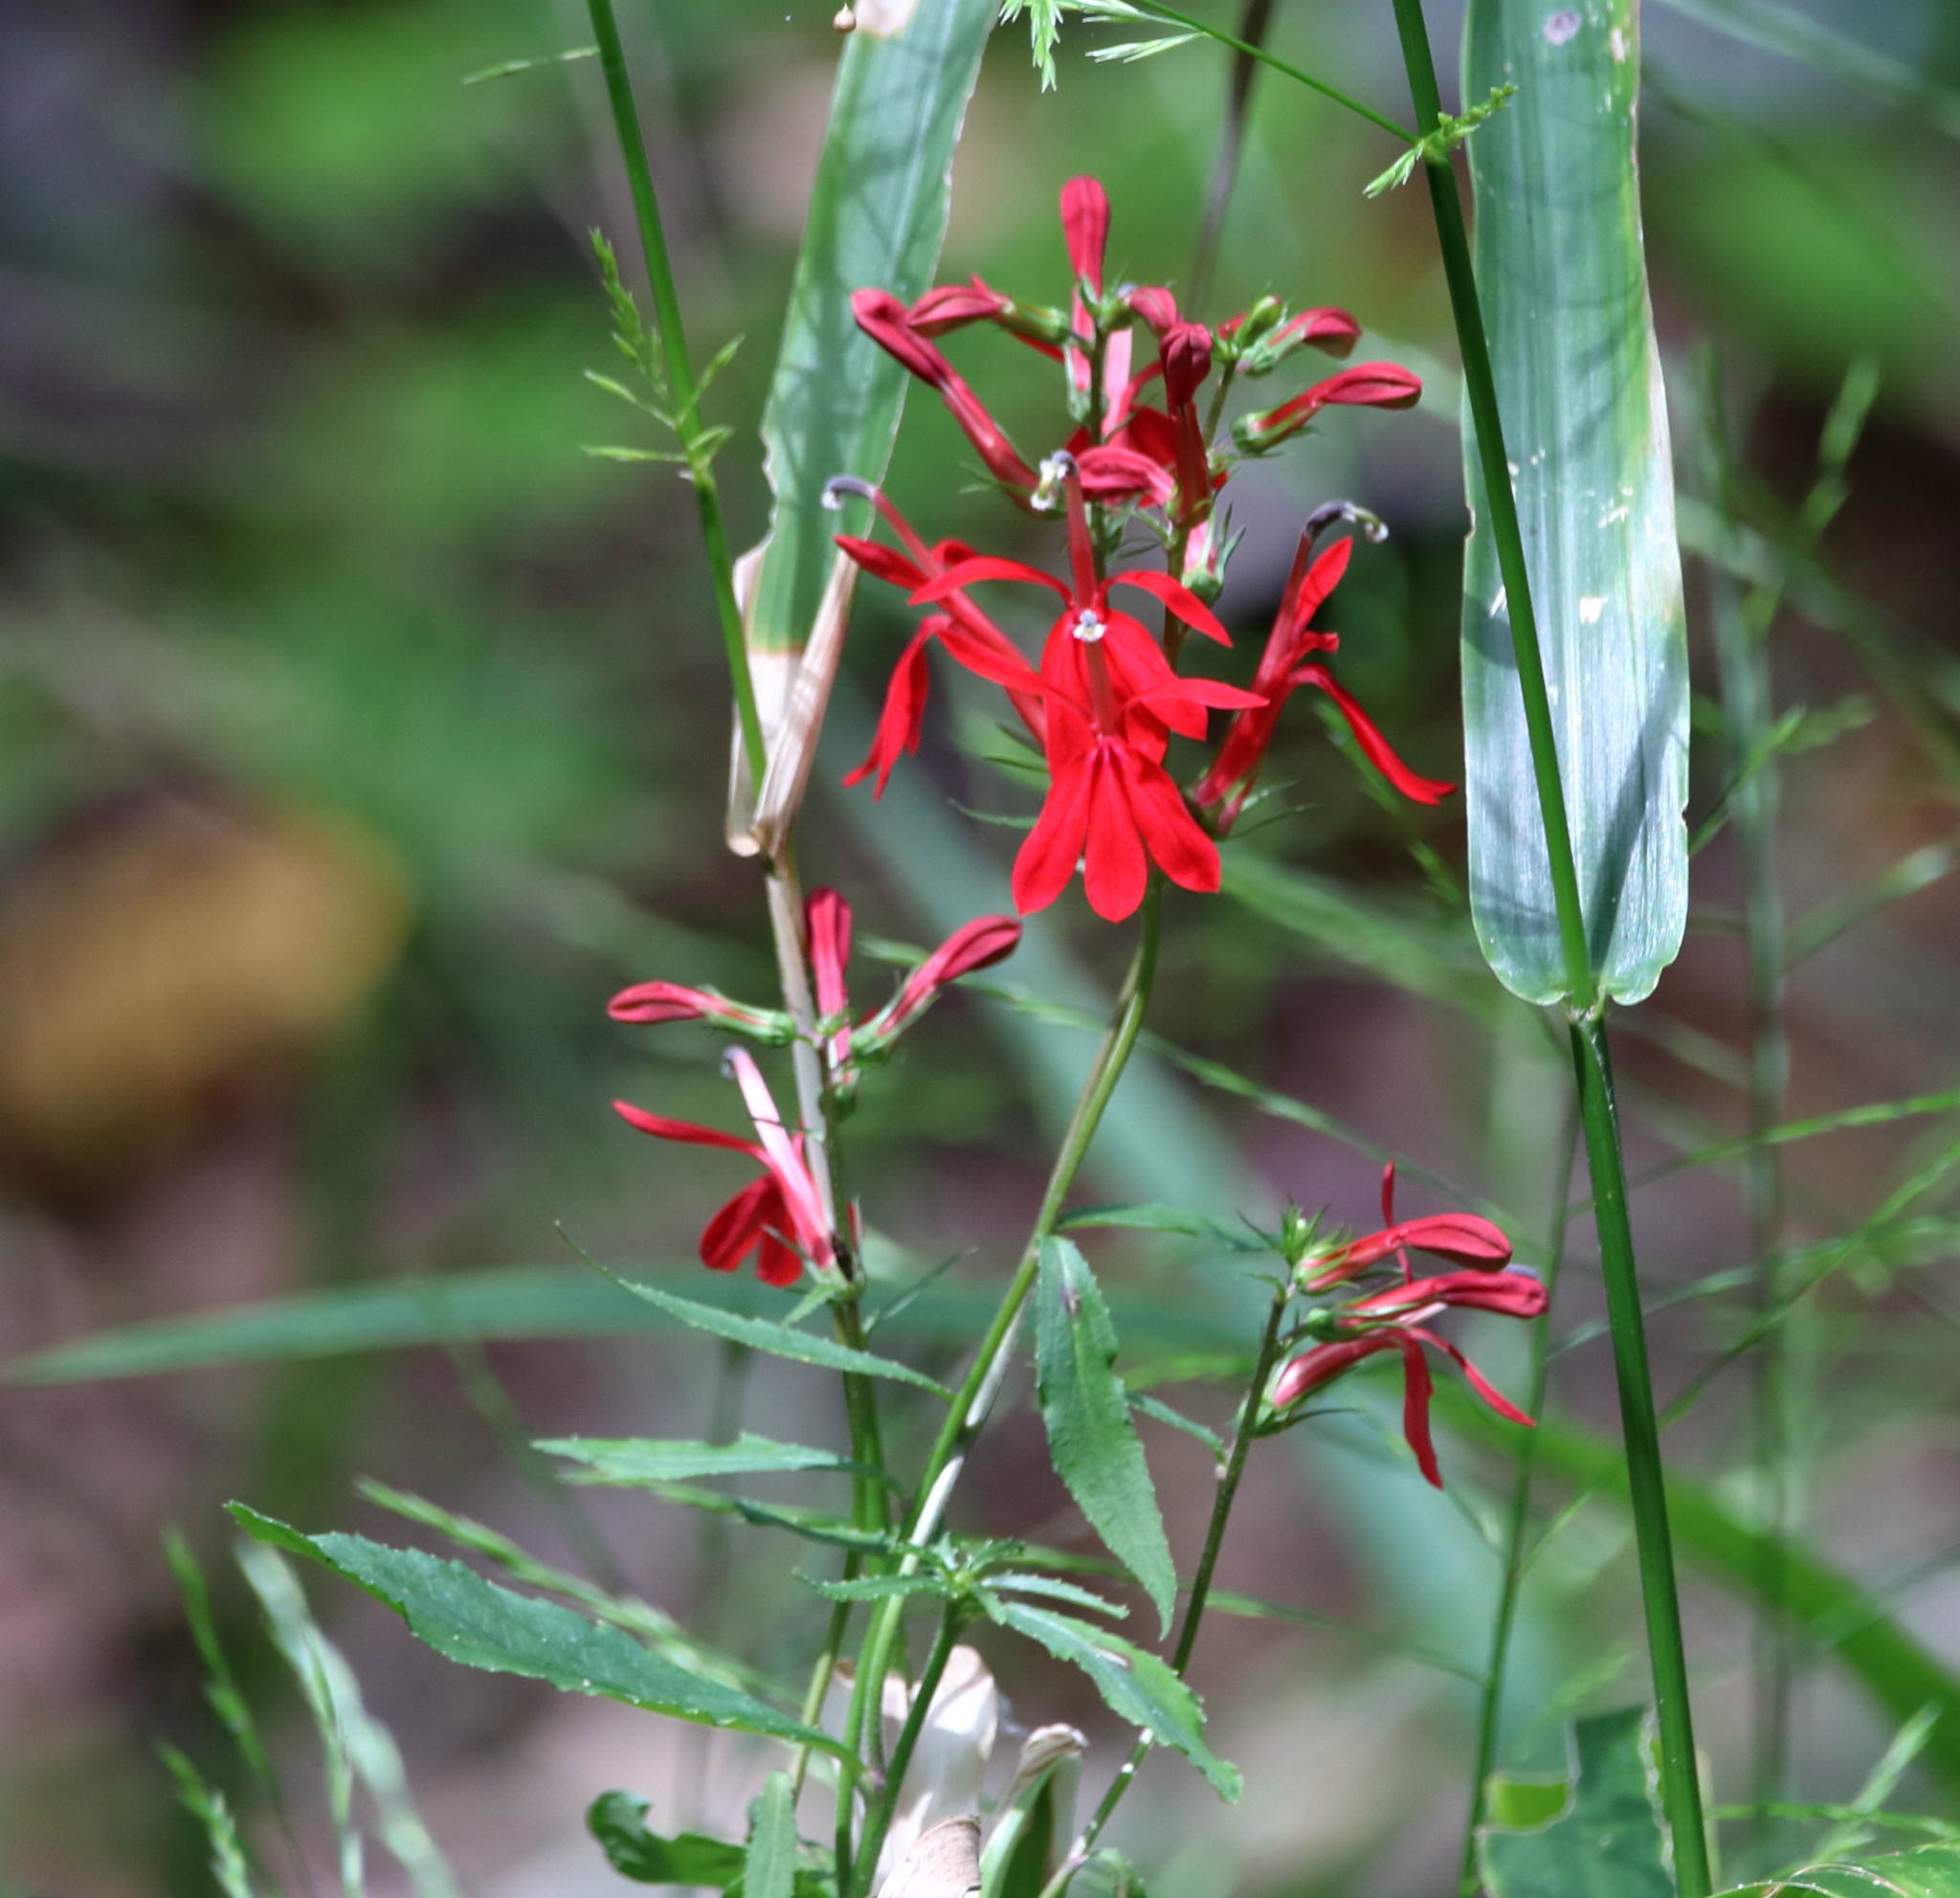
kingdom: Plantae
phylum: Tracheophyta
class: Magnoliopsida
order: Asterales
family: Campanulaceae
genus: Lobelia
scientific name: Lobelia cardinalis
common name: Cardinal flower
